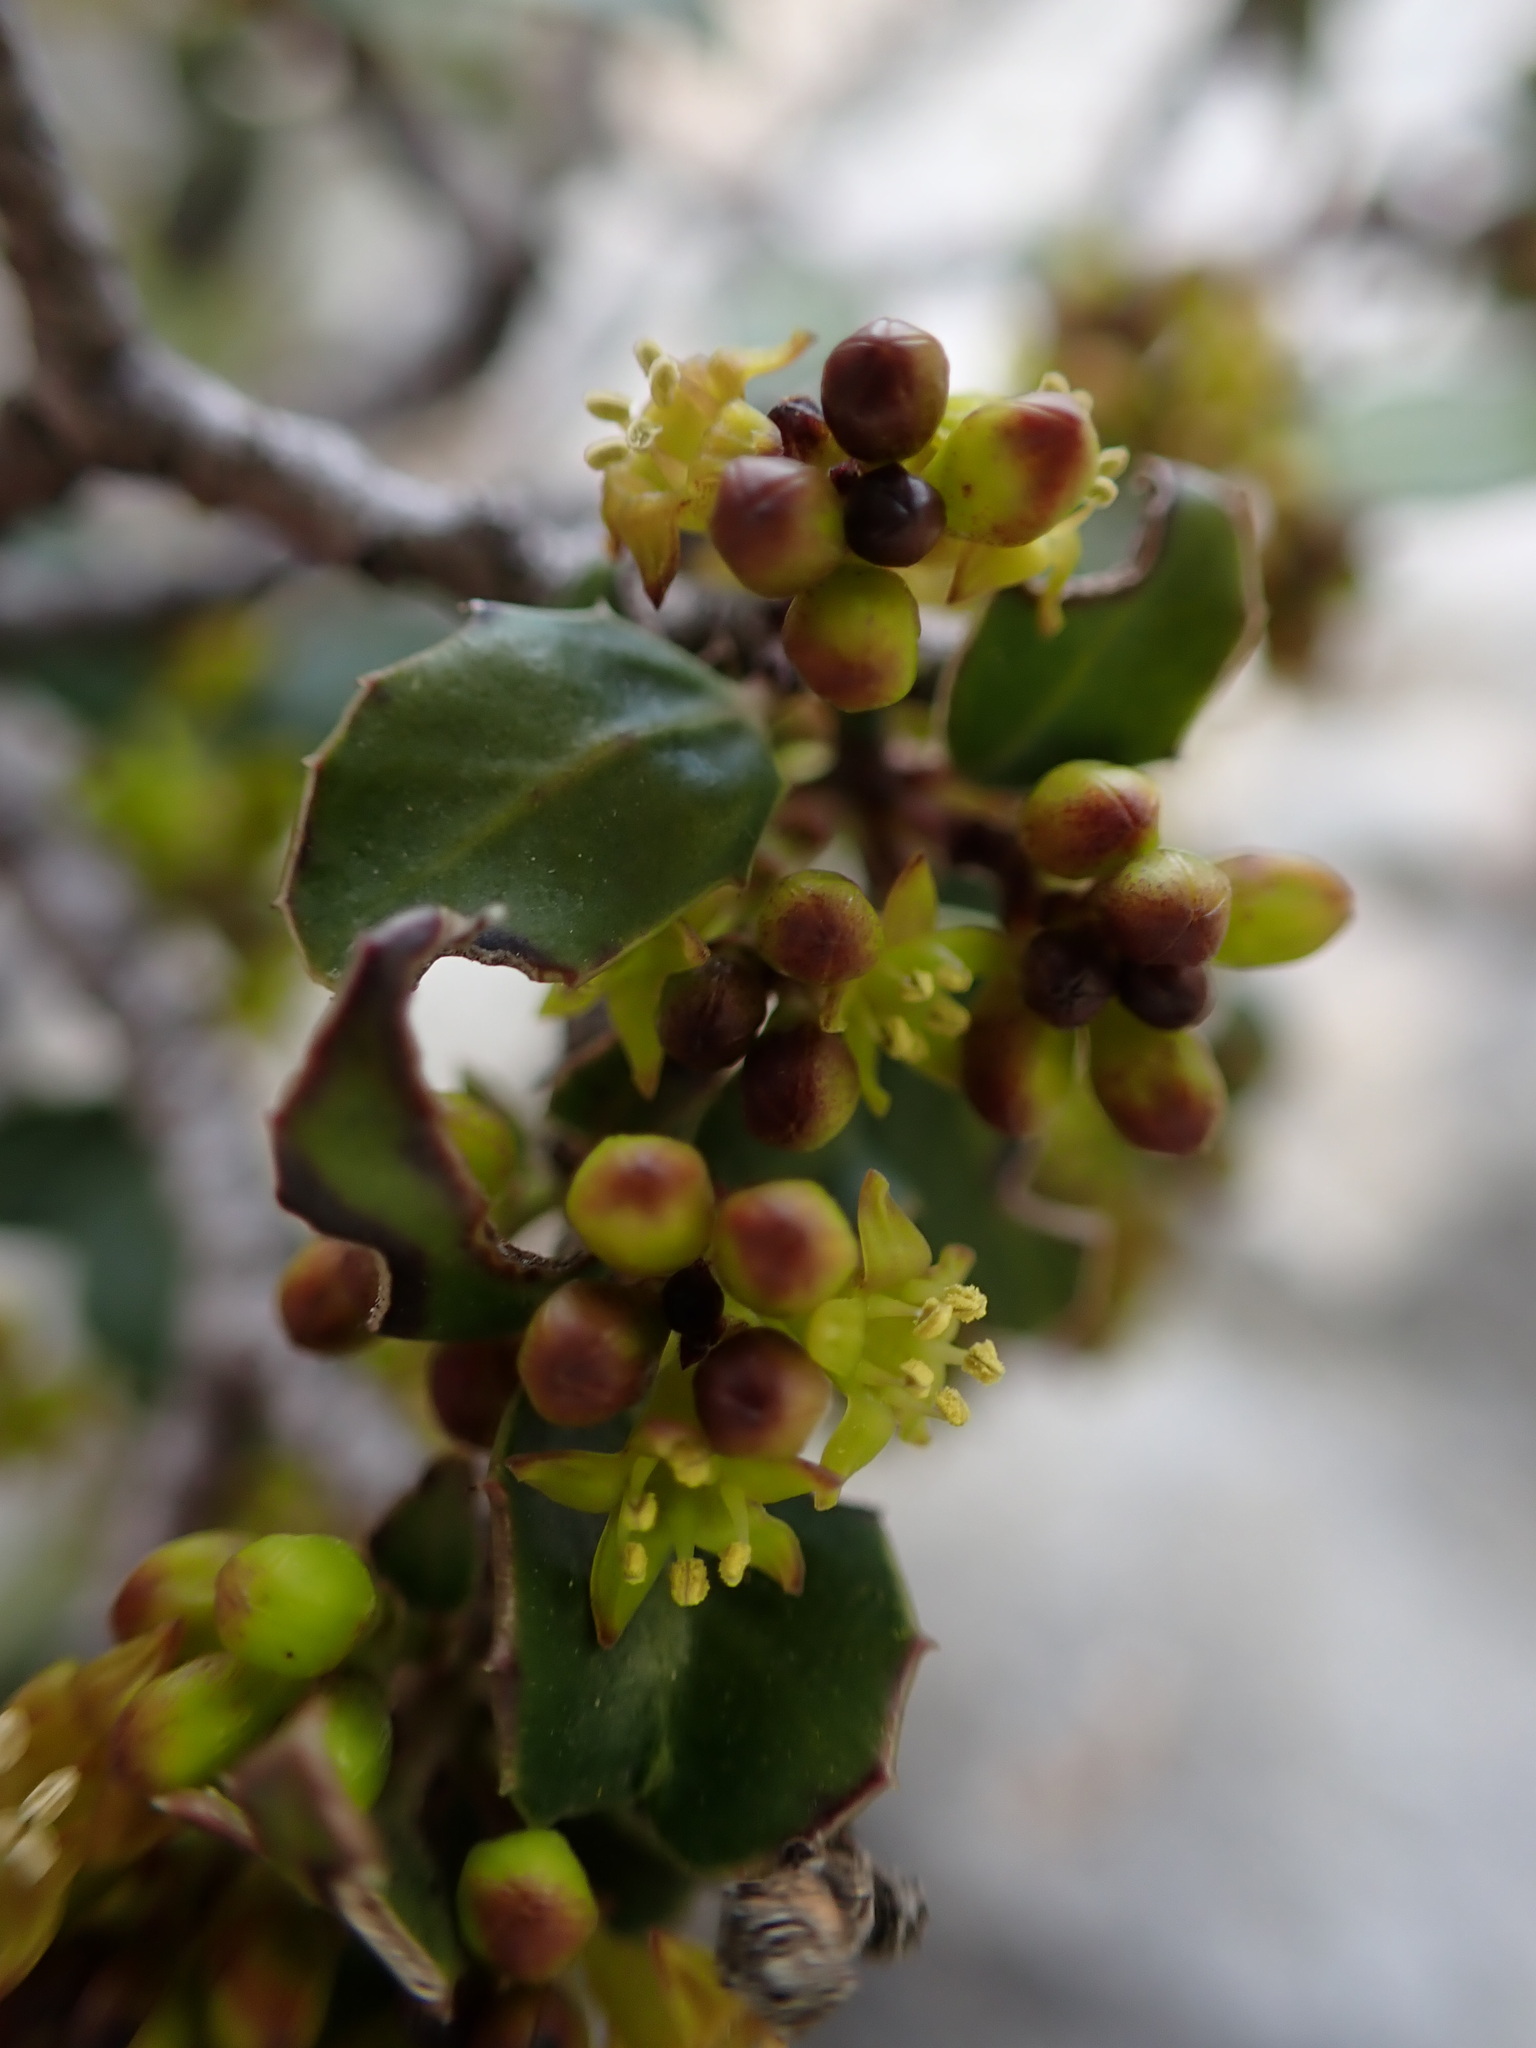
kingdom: Plantae
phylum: Tracheophyta
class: Magnoliopsida
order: Rosales
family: Rhamnaceae
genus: Rhamnus
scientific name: Rhamnus alaternus
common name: Mediterranean buckthorn
